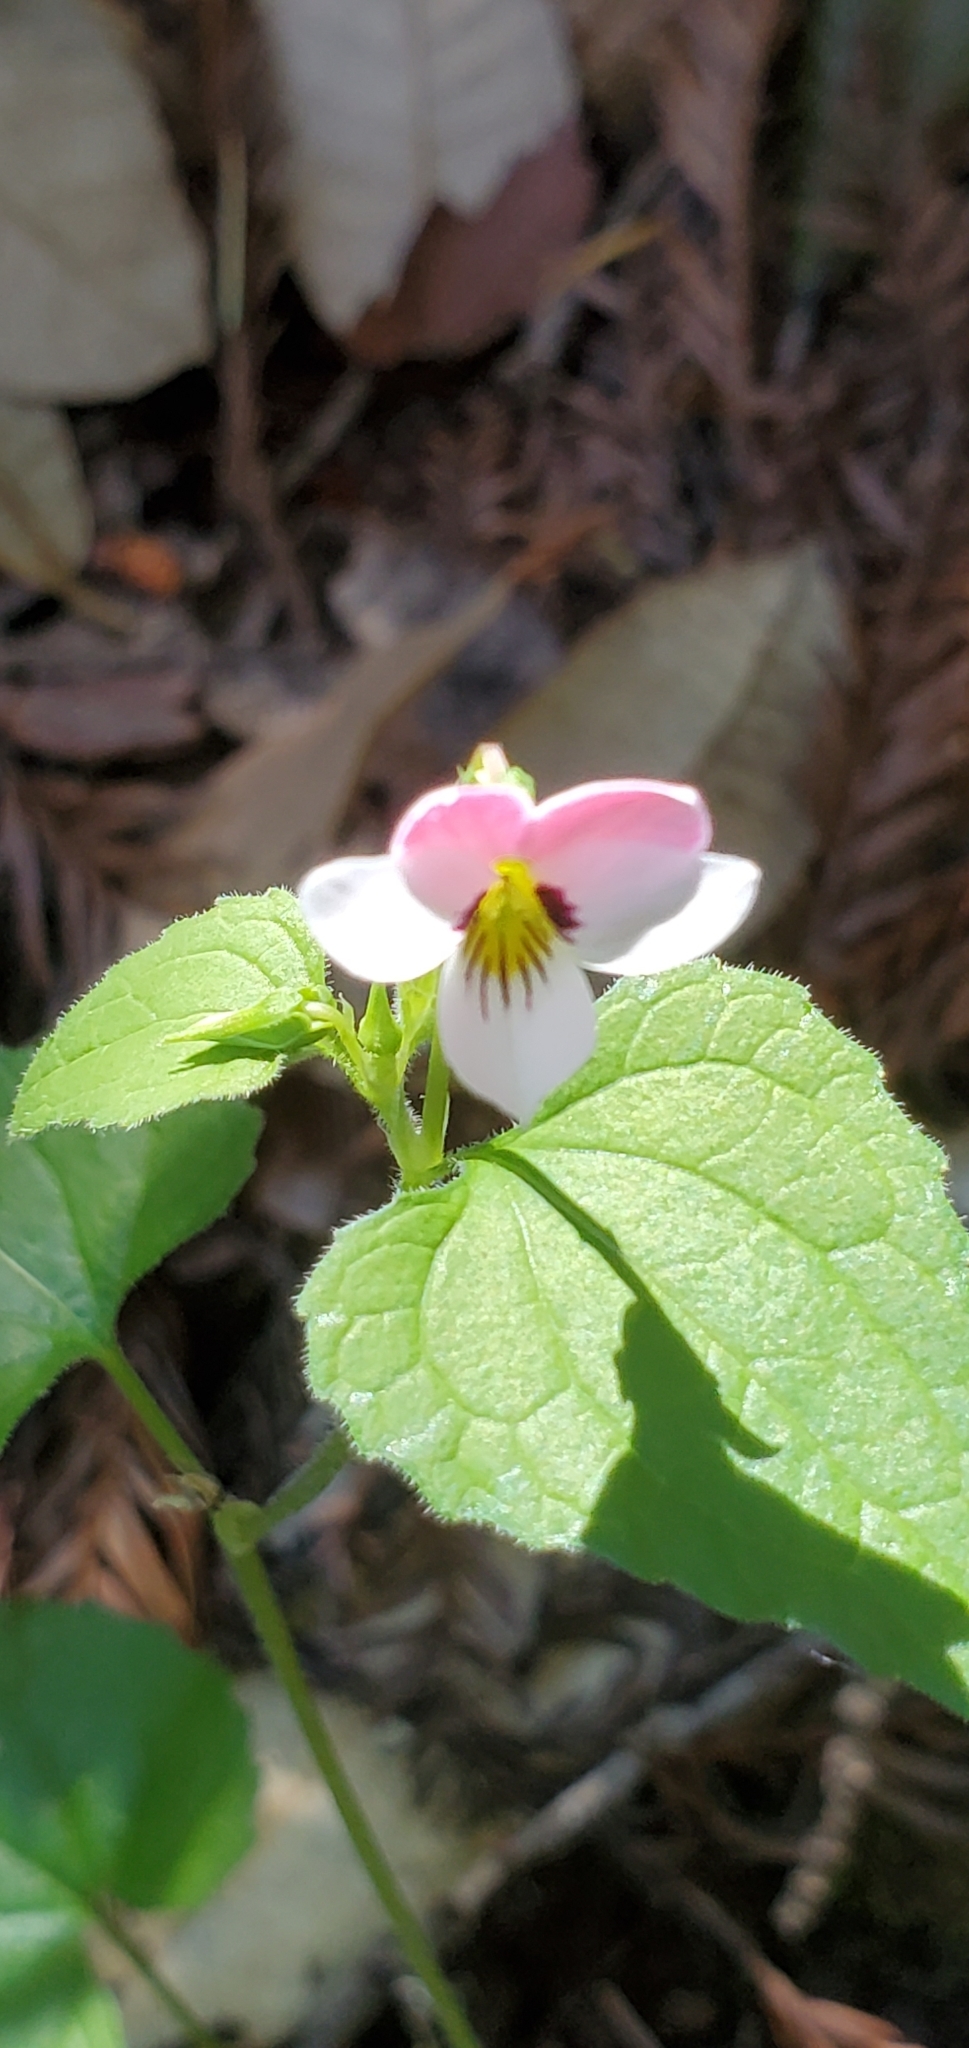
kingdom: Plantae
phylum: Tracheophyta
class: Magnoliopsida
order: Malpighiales
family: Violaceae
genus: Viola
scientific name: Viola ocellata
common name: Western heart's ease
